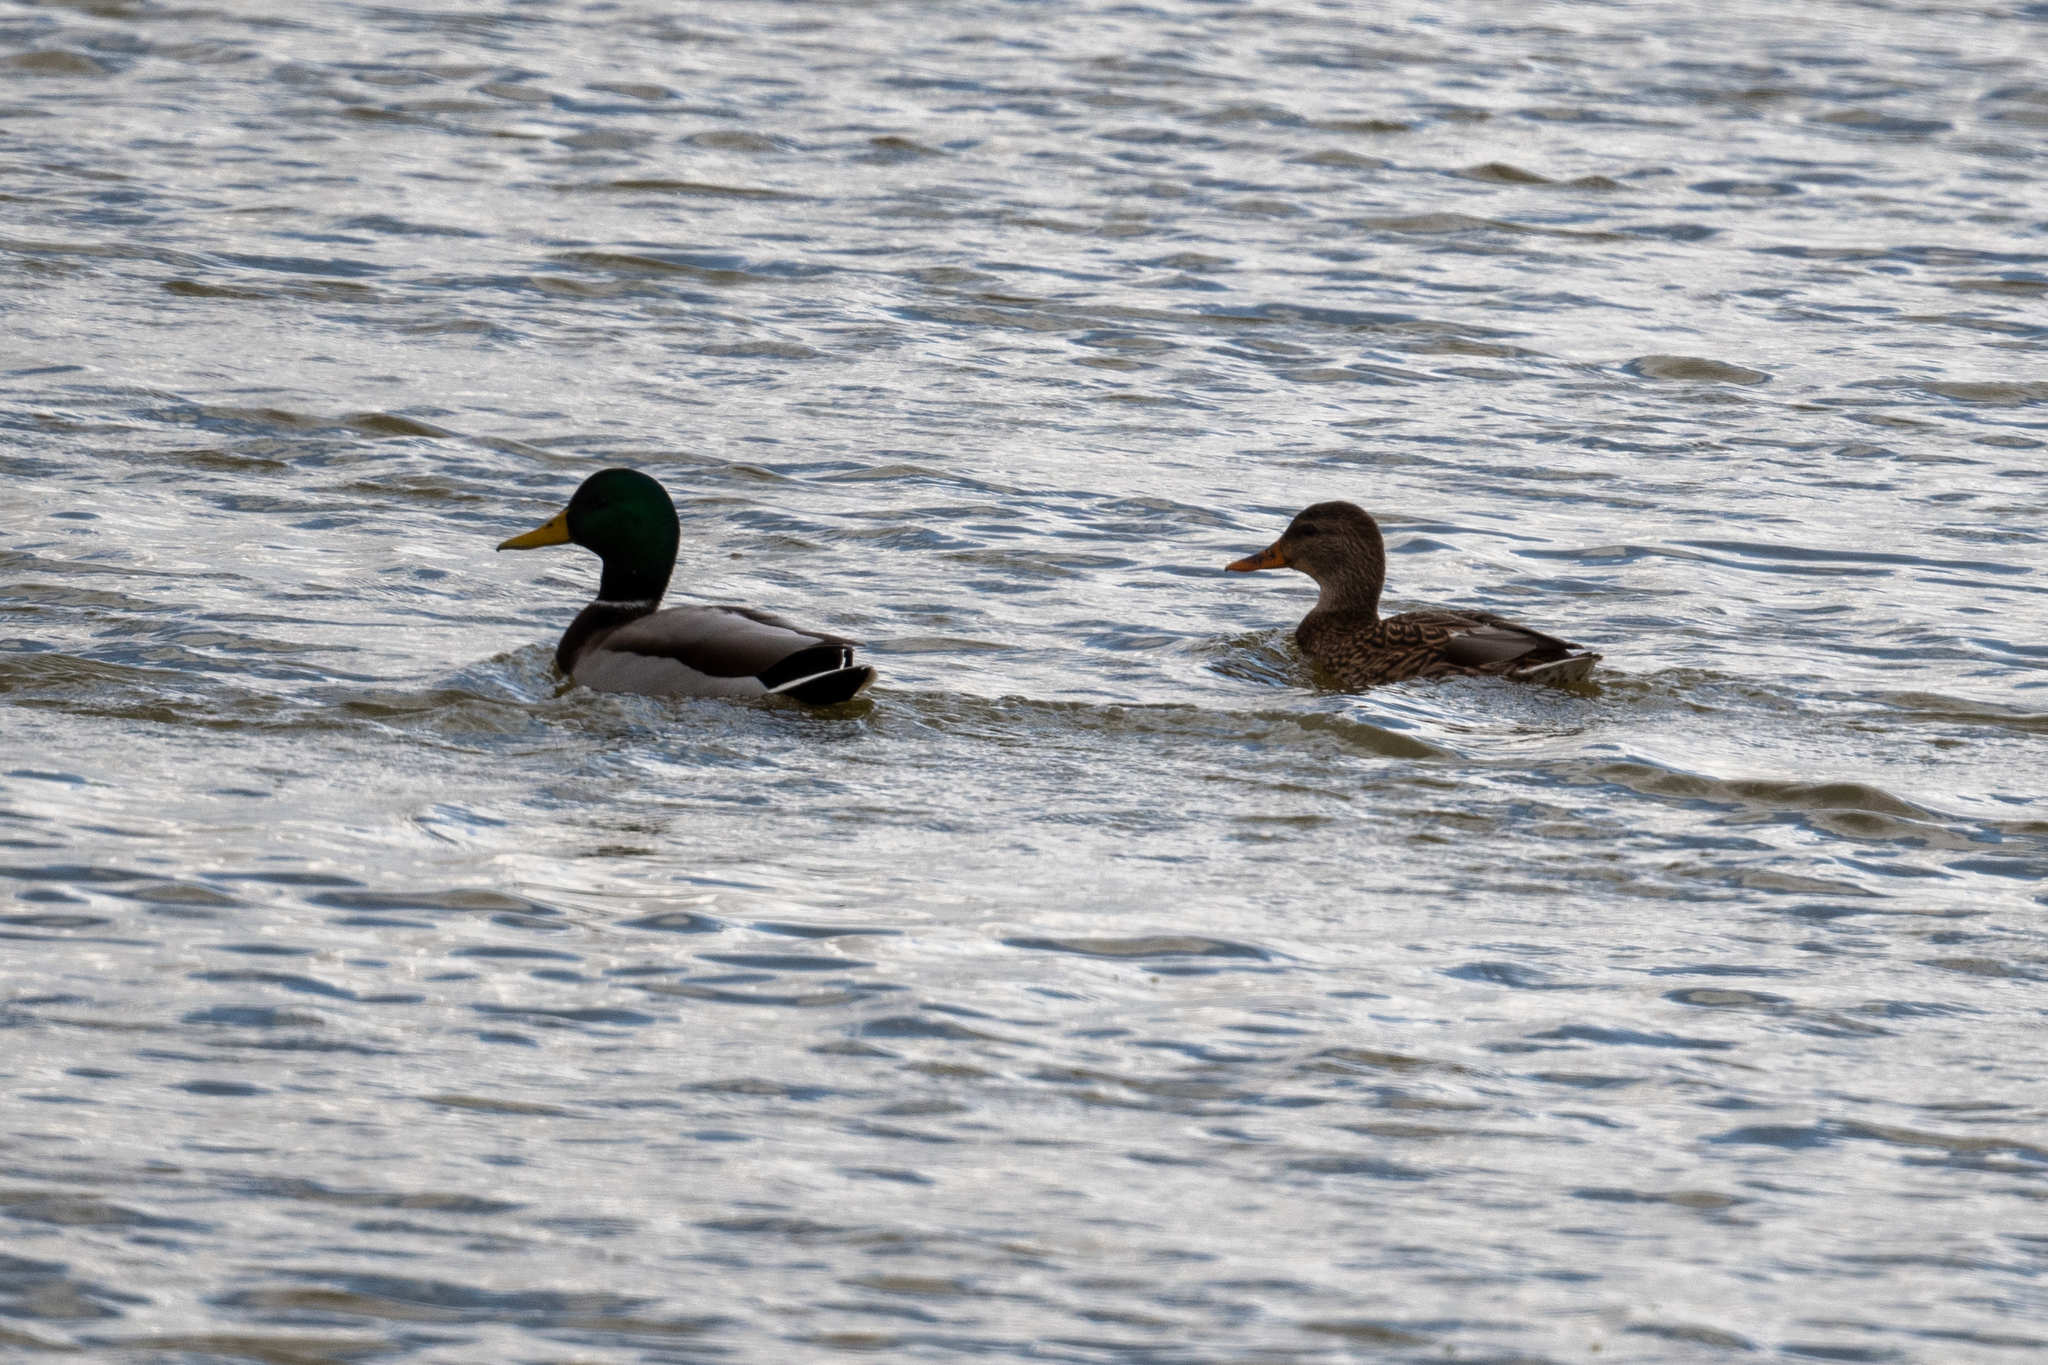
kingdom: Animalia
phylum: Chordata
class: Aves
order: Anseriformes
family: Anatidae
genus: Anas
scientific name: Anas platyrhynchos
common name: Mallard
